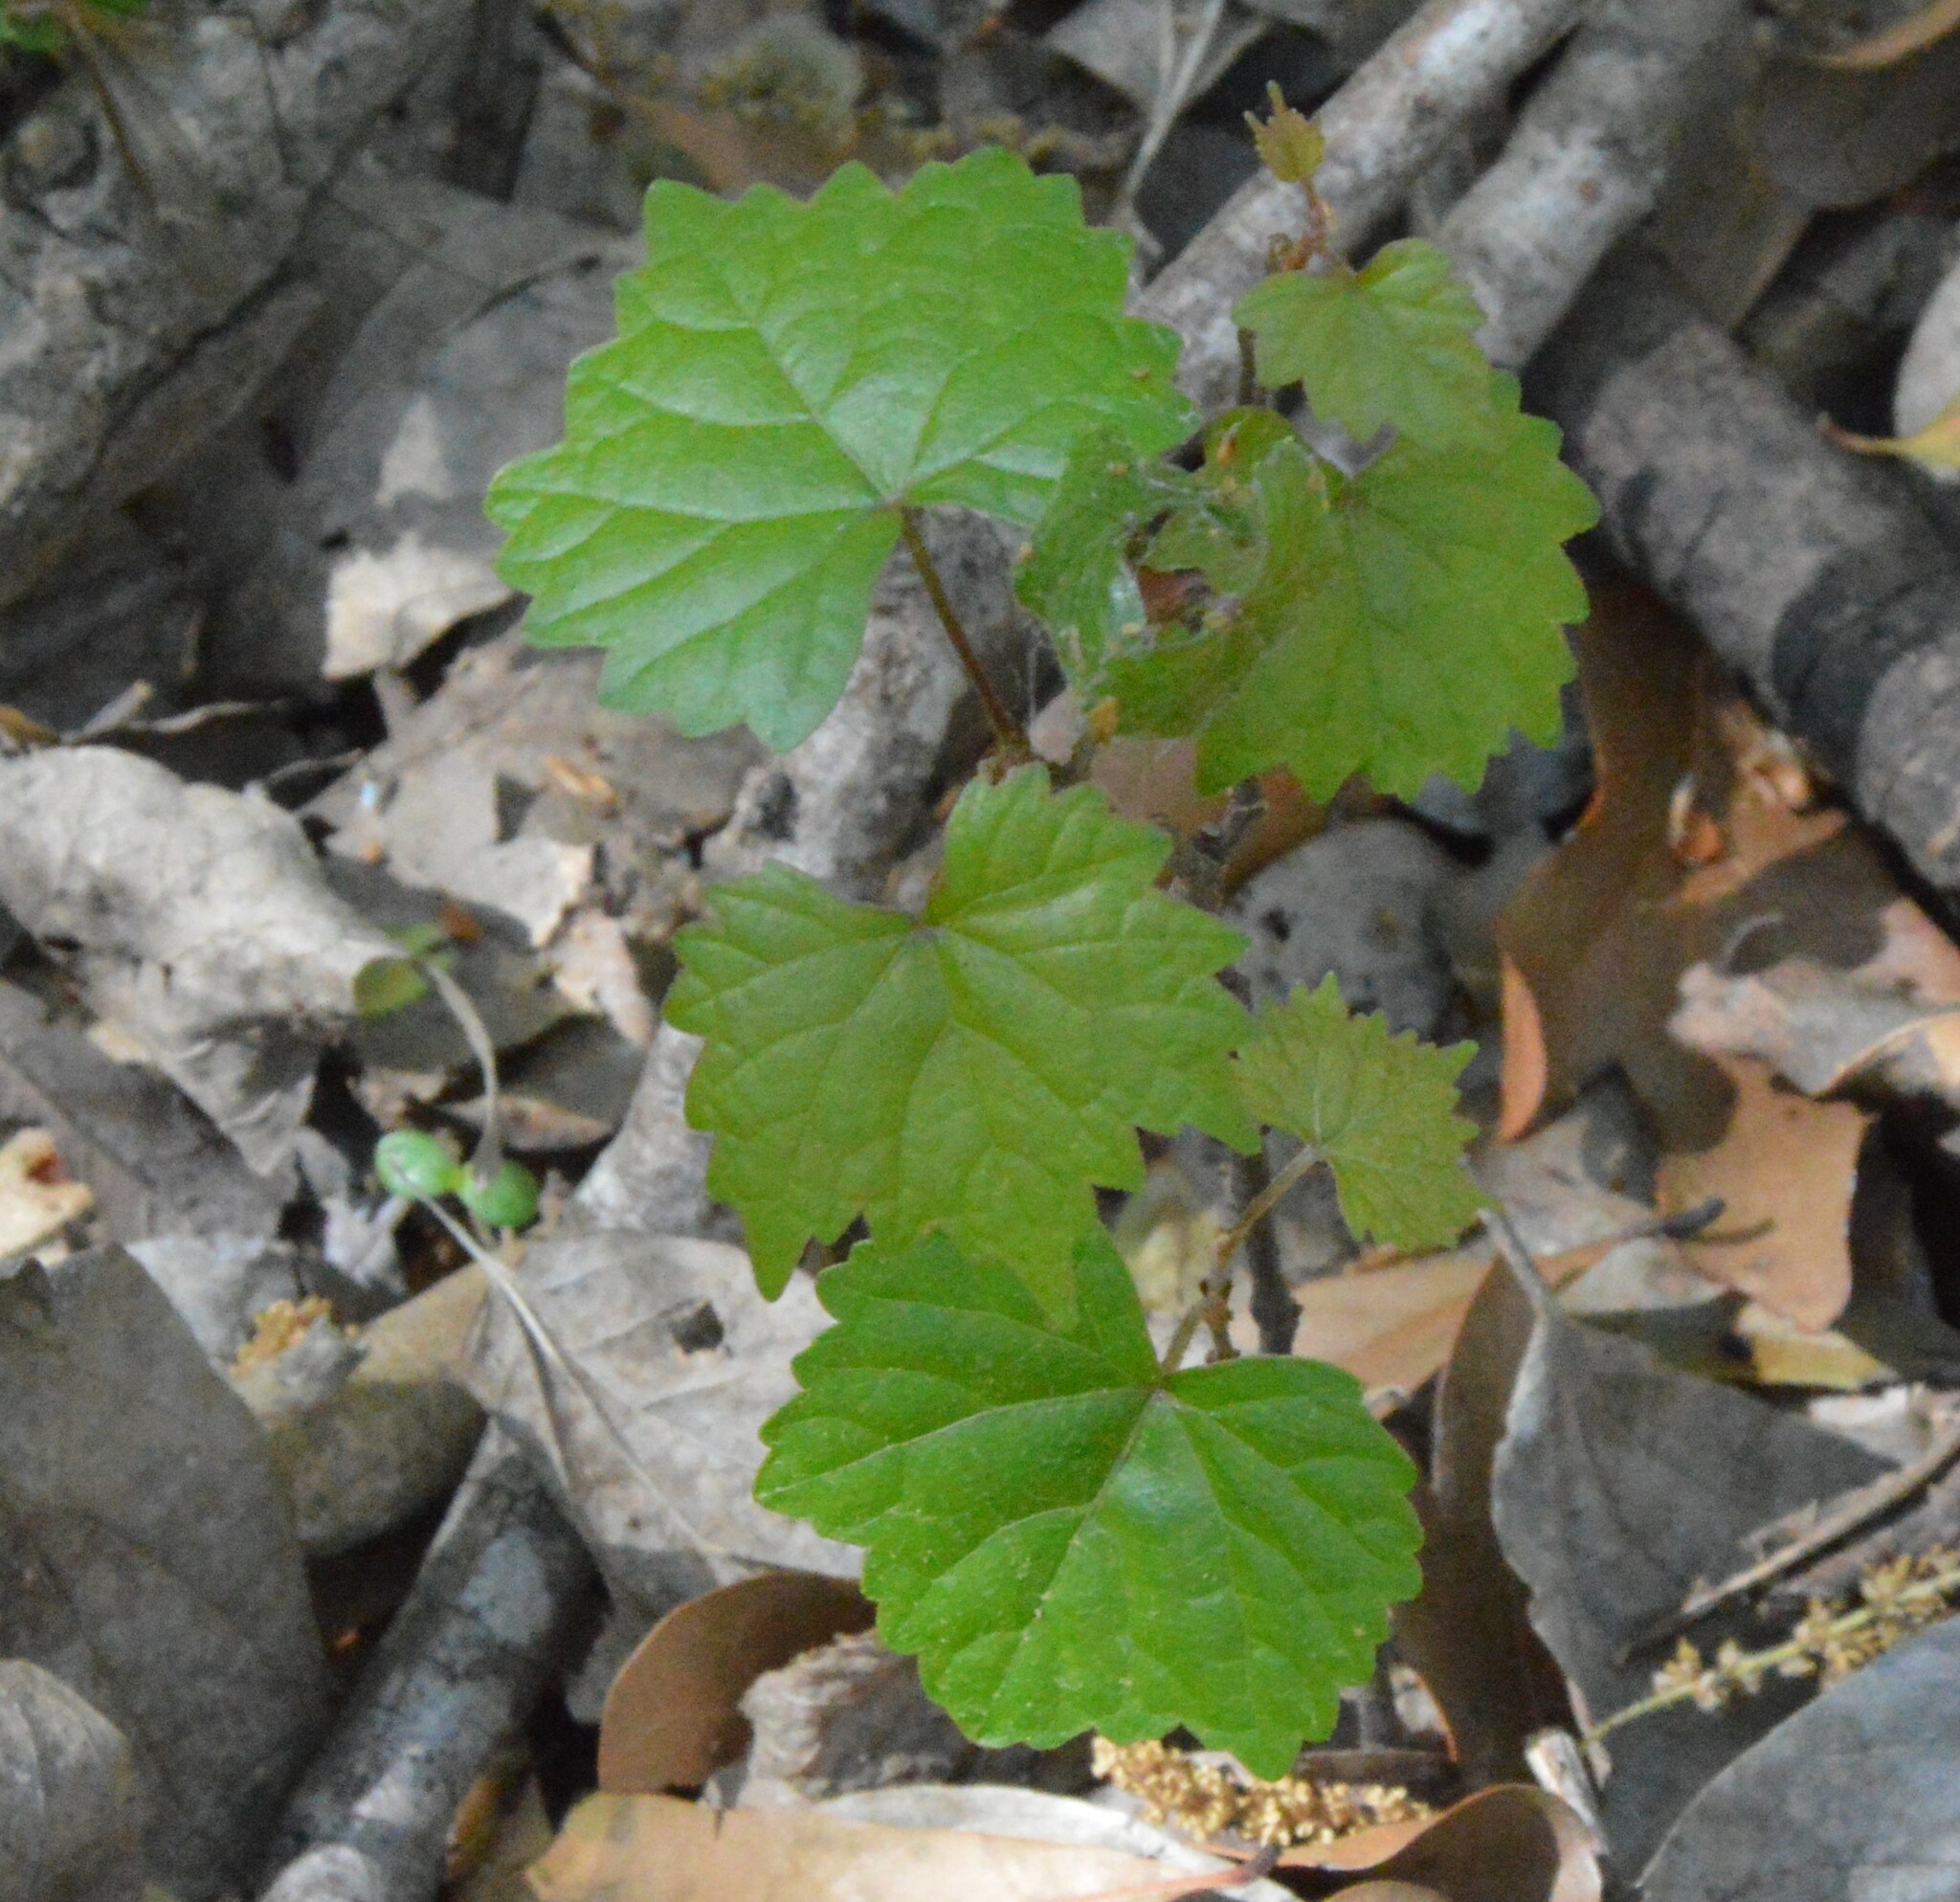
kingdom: Plantae
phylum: Tracheophyta
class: Magnoliopsida
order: Vitales
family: Vitaceae
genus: Vitis
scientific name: Vitis rotundifolia
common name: Muscadine grape
